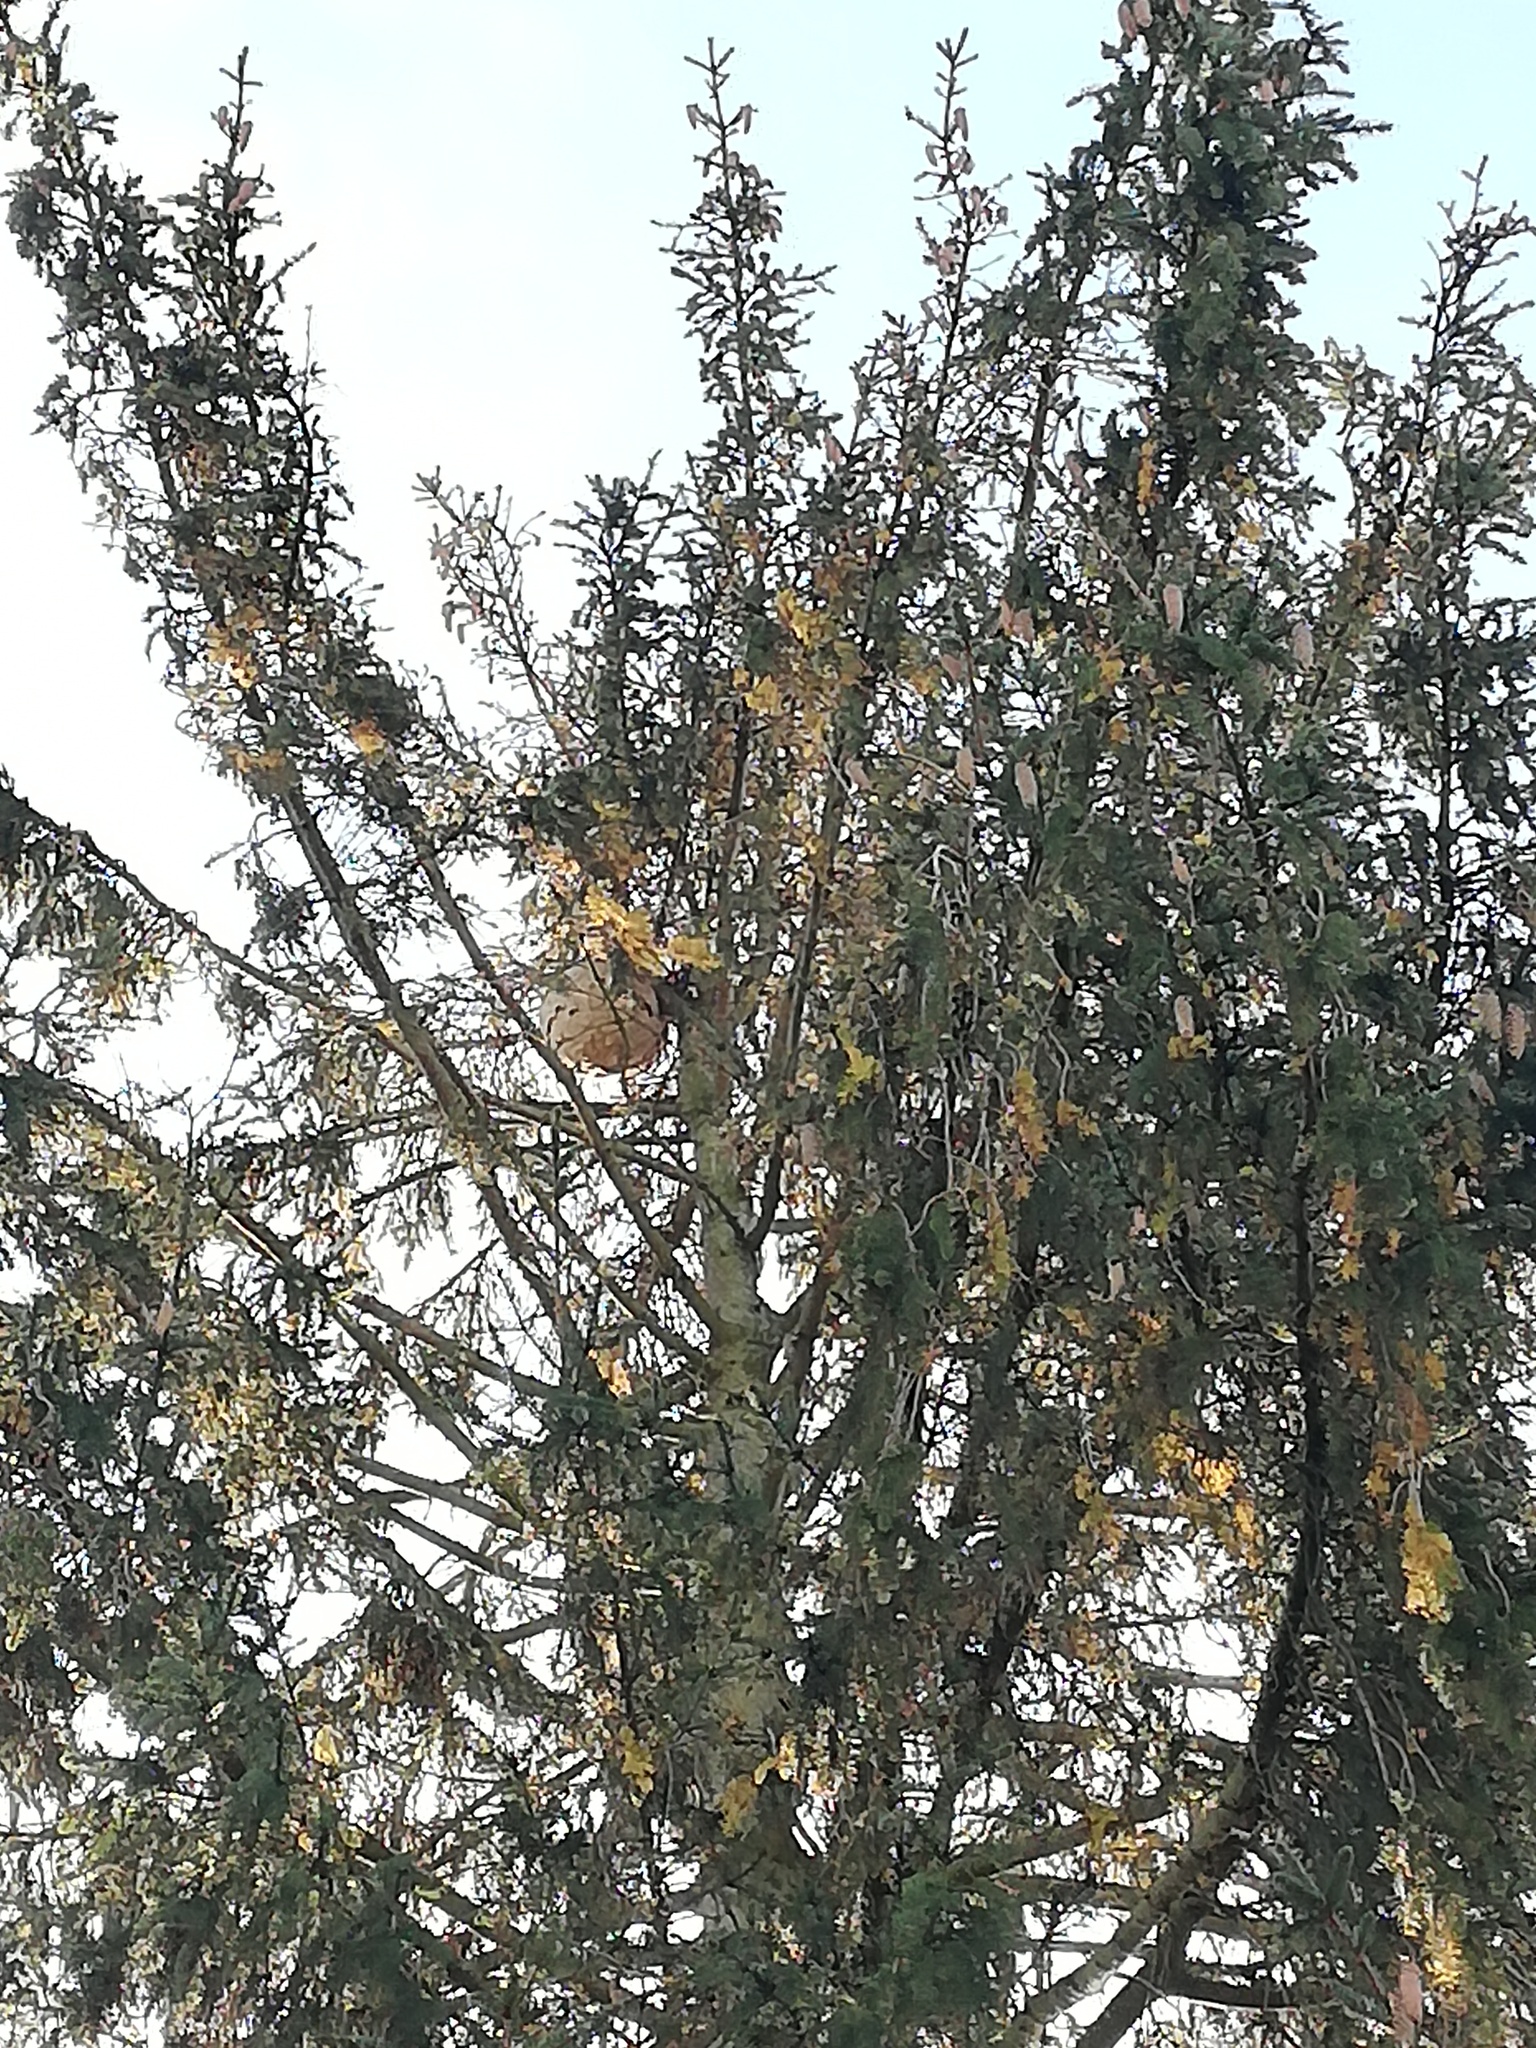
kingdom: Animalia
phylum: Arthropoda
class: Insecta
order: Hymenoptera
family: Vespidae
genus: Vespa
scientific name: Vespa velutina
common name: Asian hornet
